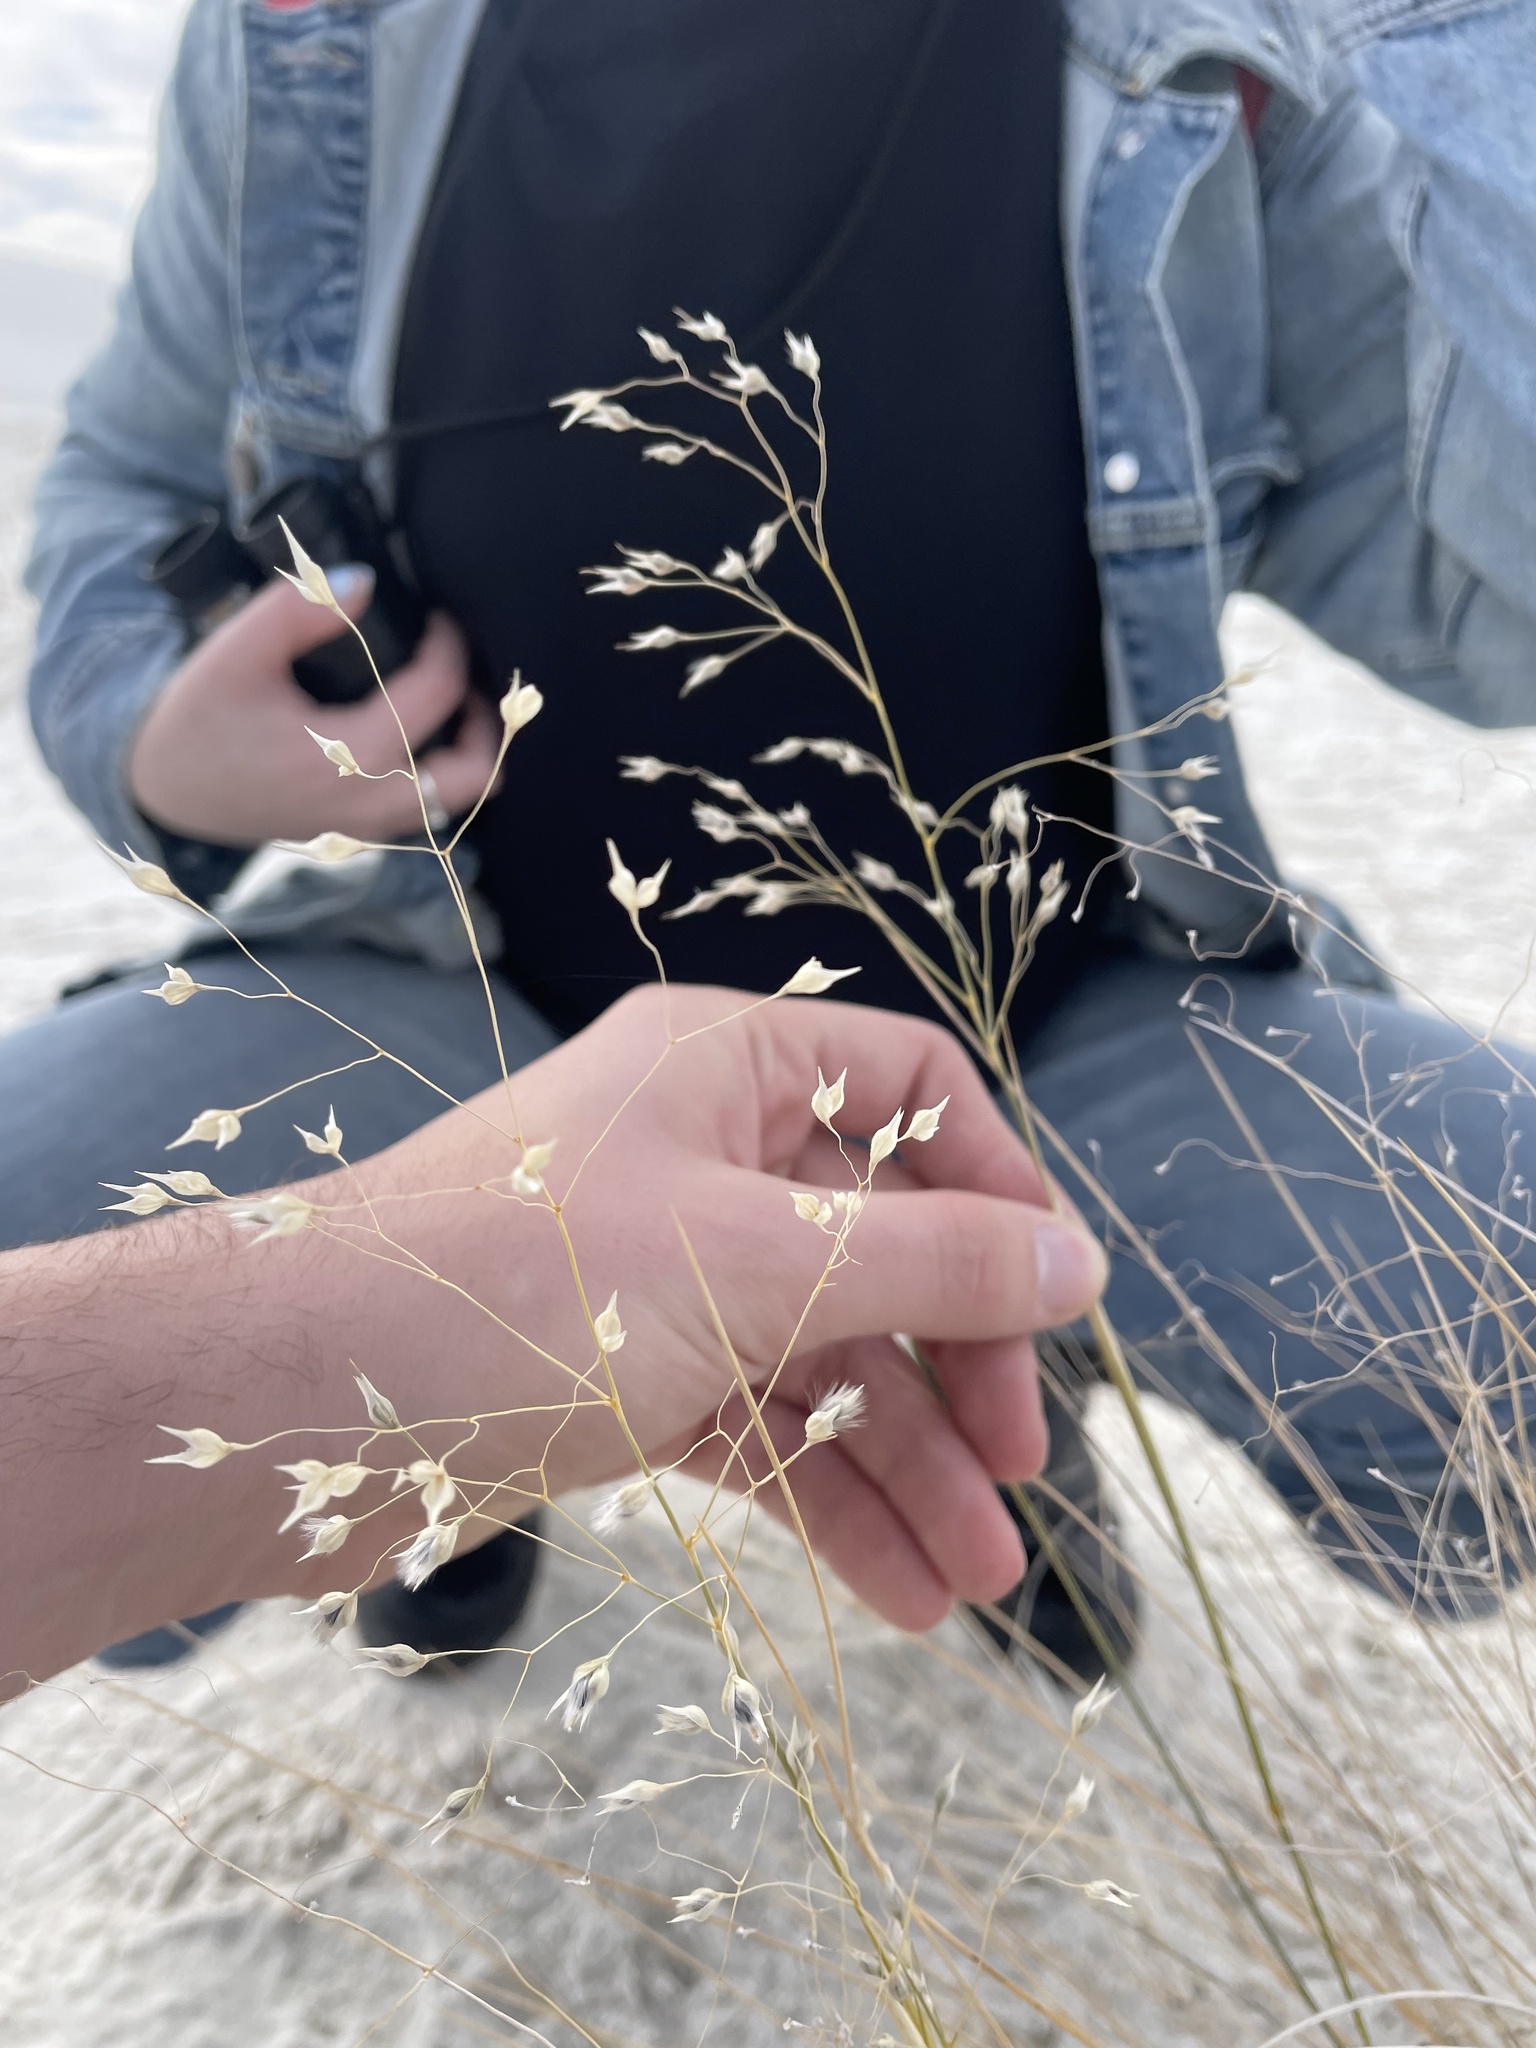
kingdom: Plantae
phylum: Tracheophyta
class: Liliopsida
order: Poales
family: Poaceae
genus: Eriocoma
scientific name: Eriocoma hymenoides
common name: Indian mountain ricegrass
